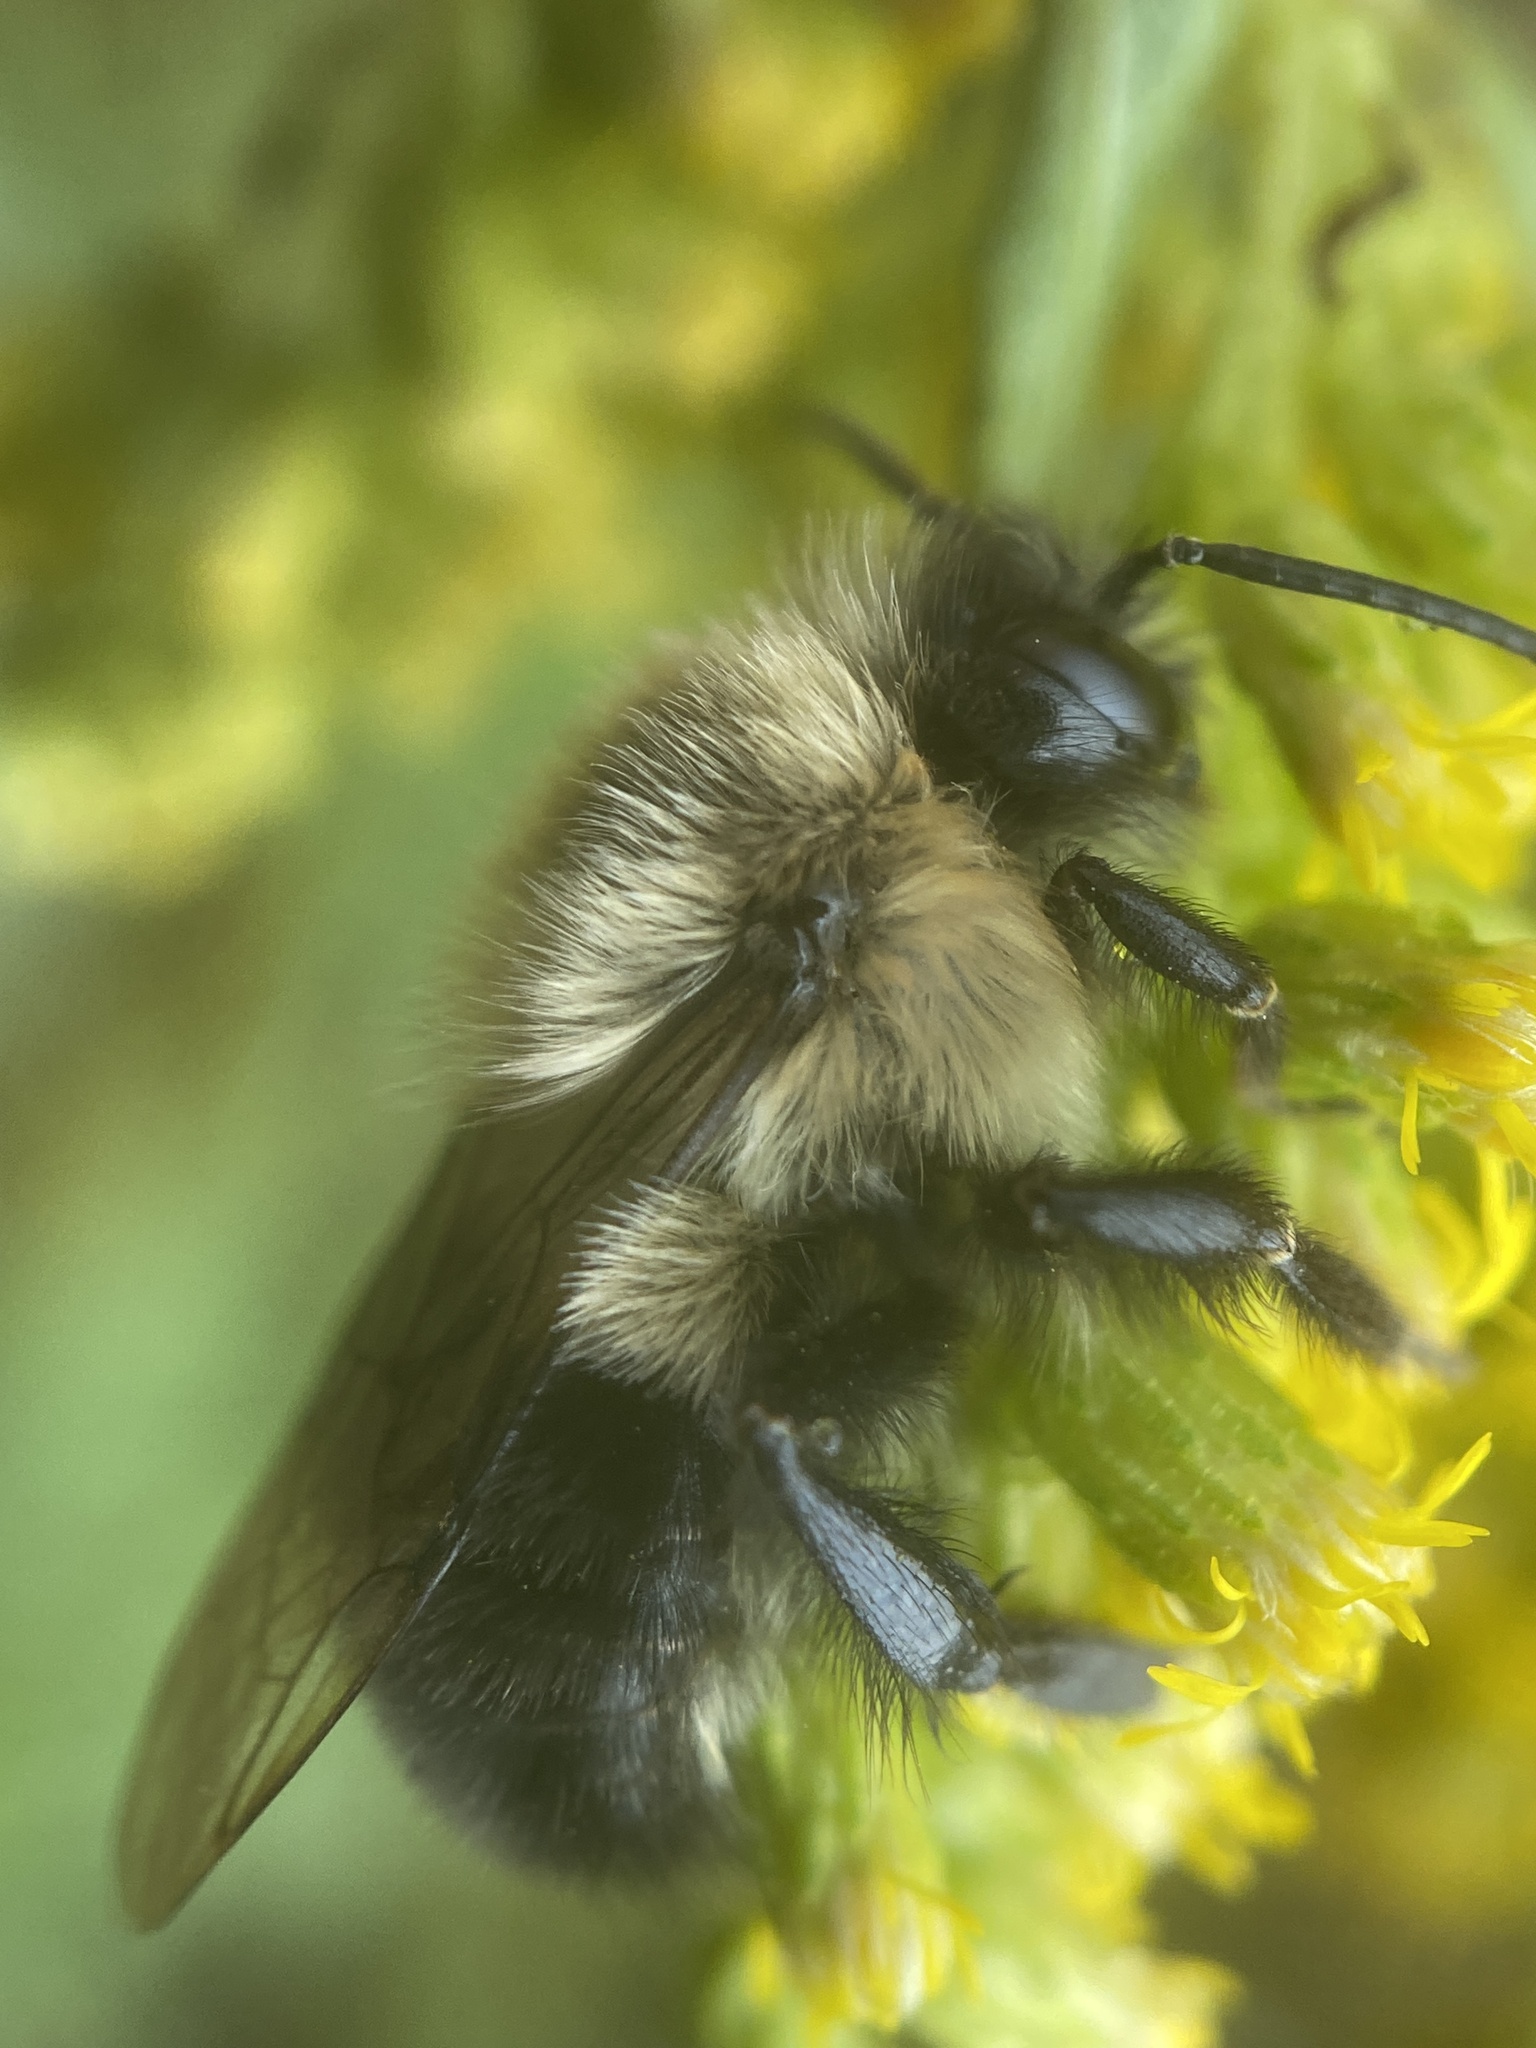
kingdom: Animalia
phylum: Arthropoda
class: Insecta
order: Hymenoptera
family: Apidae
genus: Bombus
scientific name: Bombus impatiens
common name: Common eastern bumble bee
